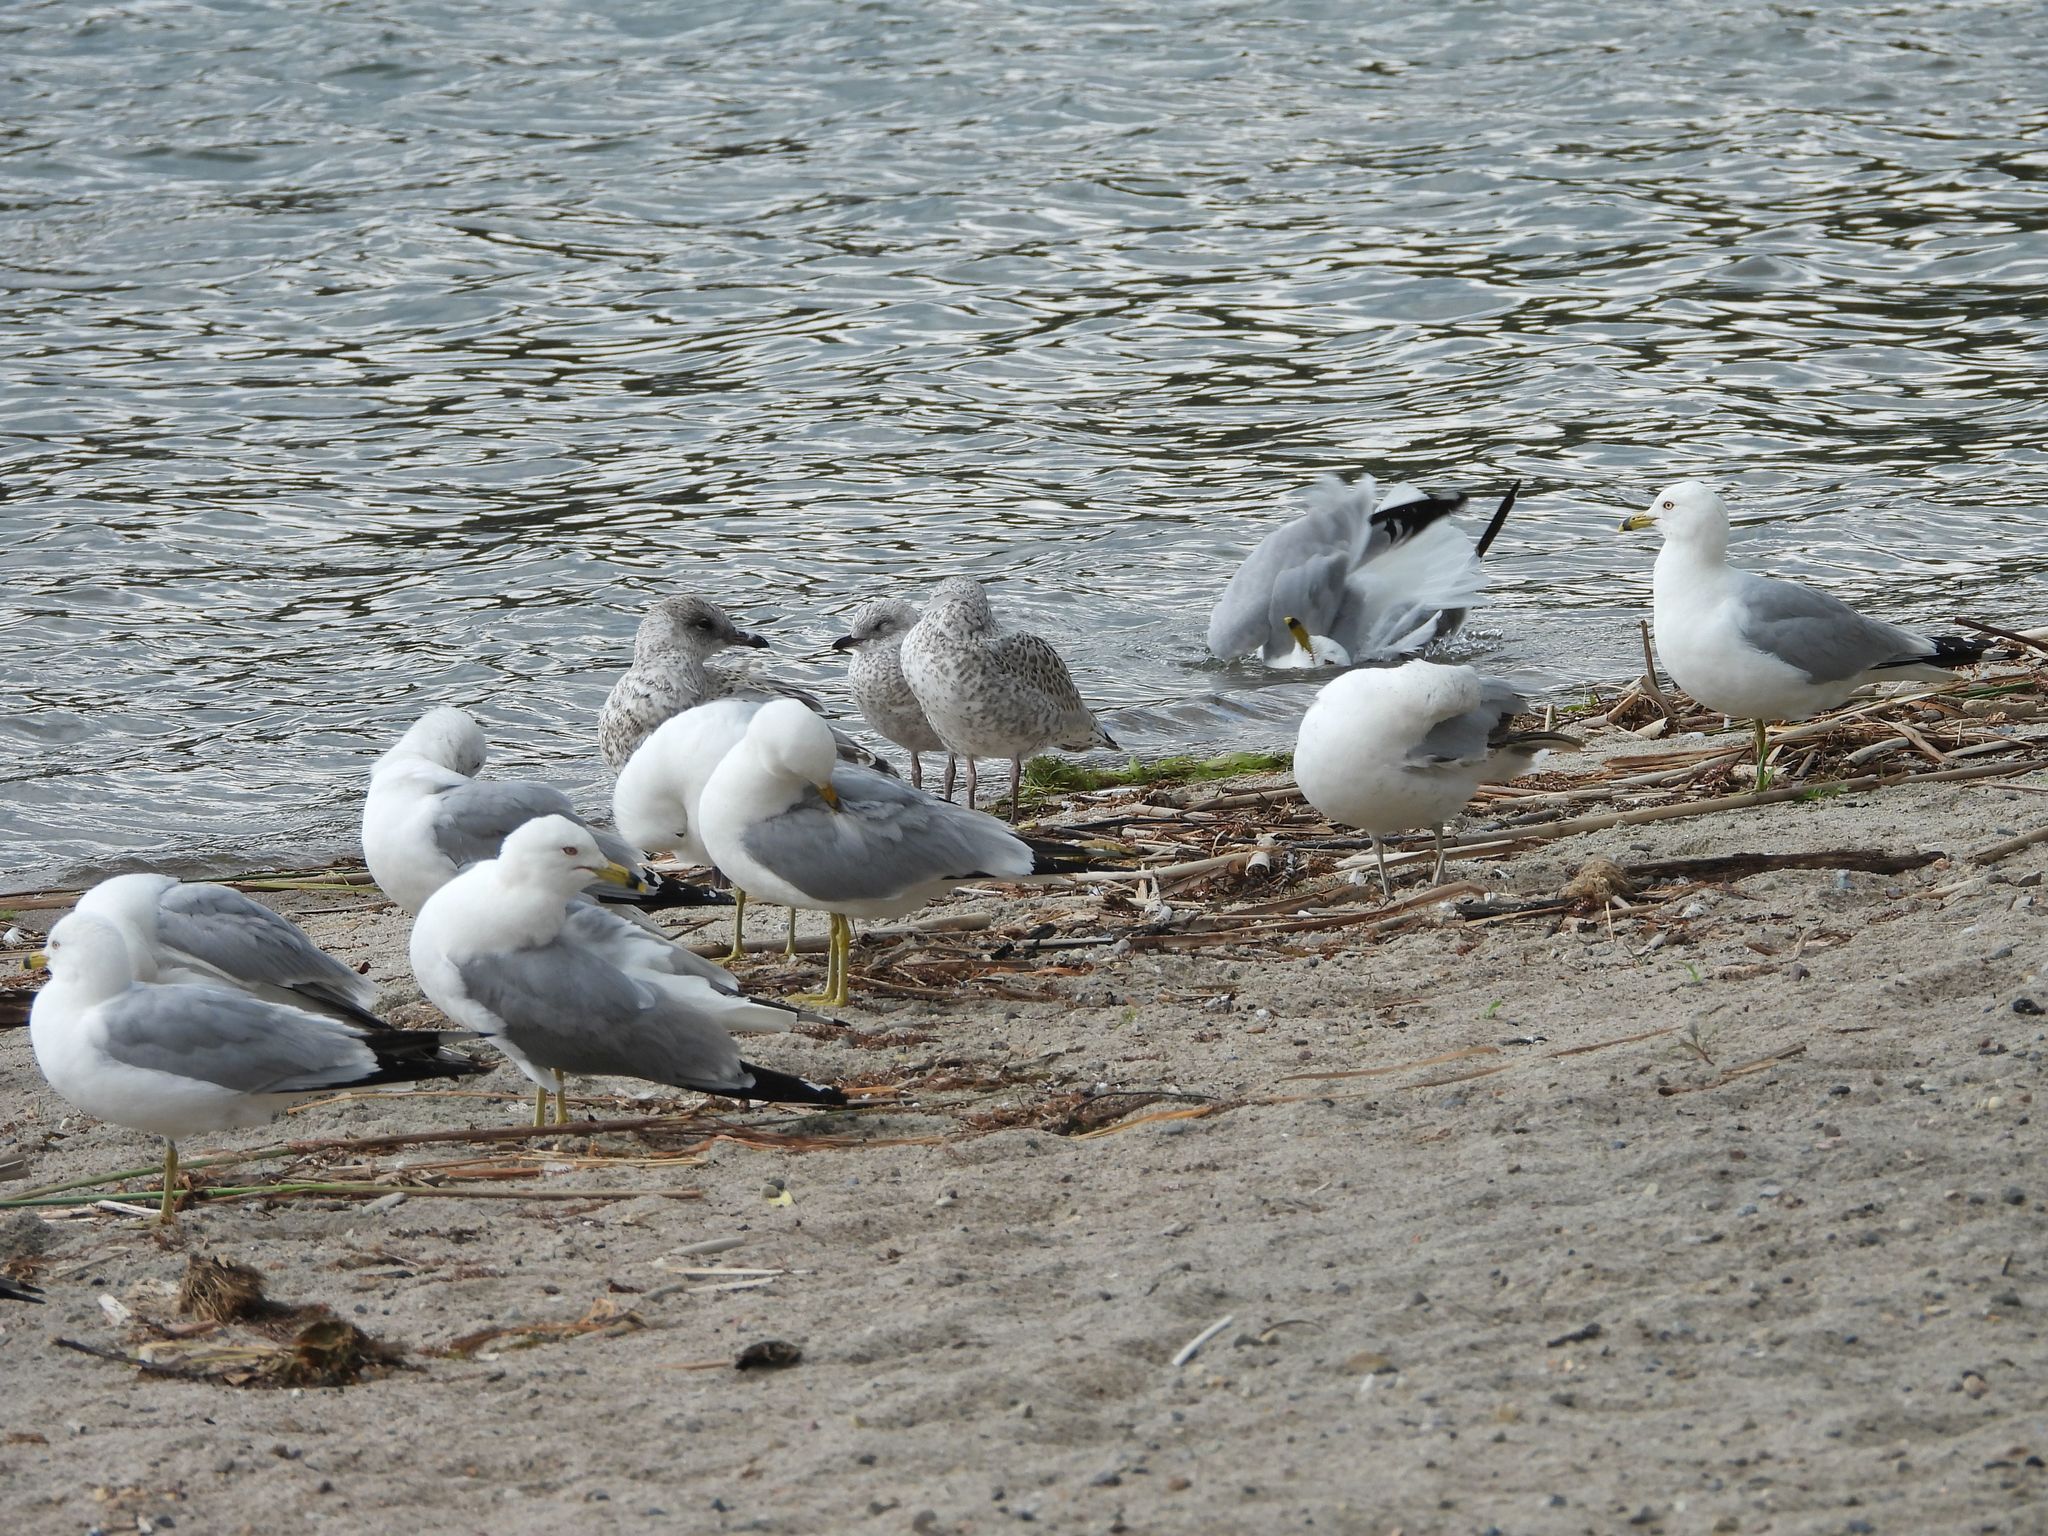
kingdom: Animalia
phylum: Chordata
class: Aves
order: Charadriiformes
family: Laridae
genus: Larus
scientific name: Larus delawarensis
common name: Ring-billed gull
